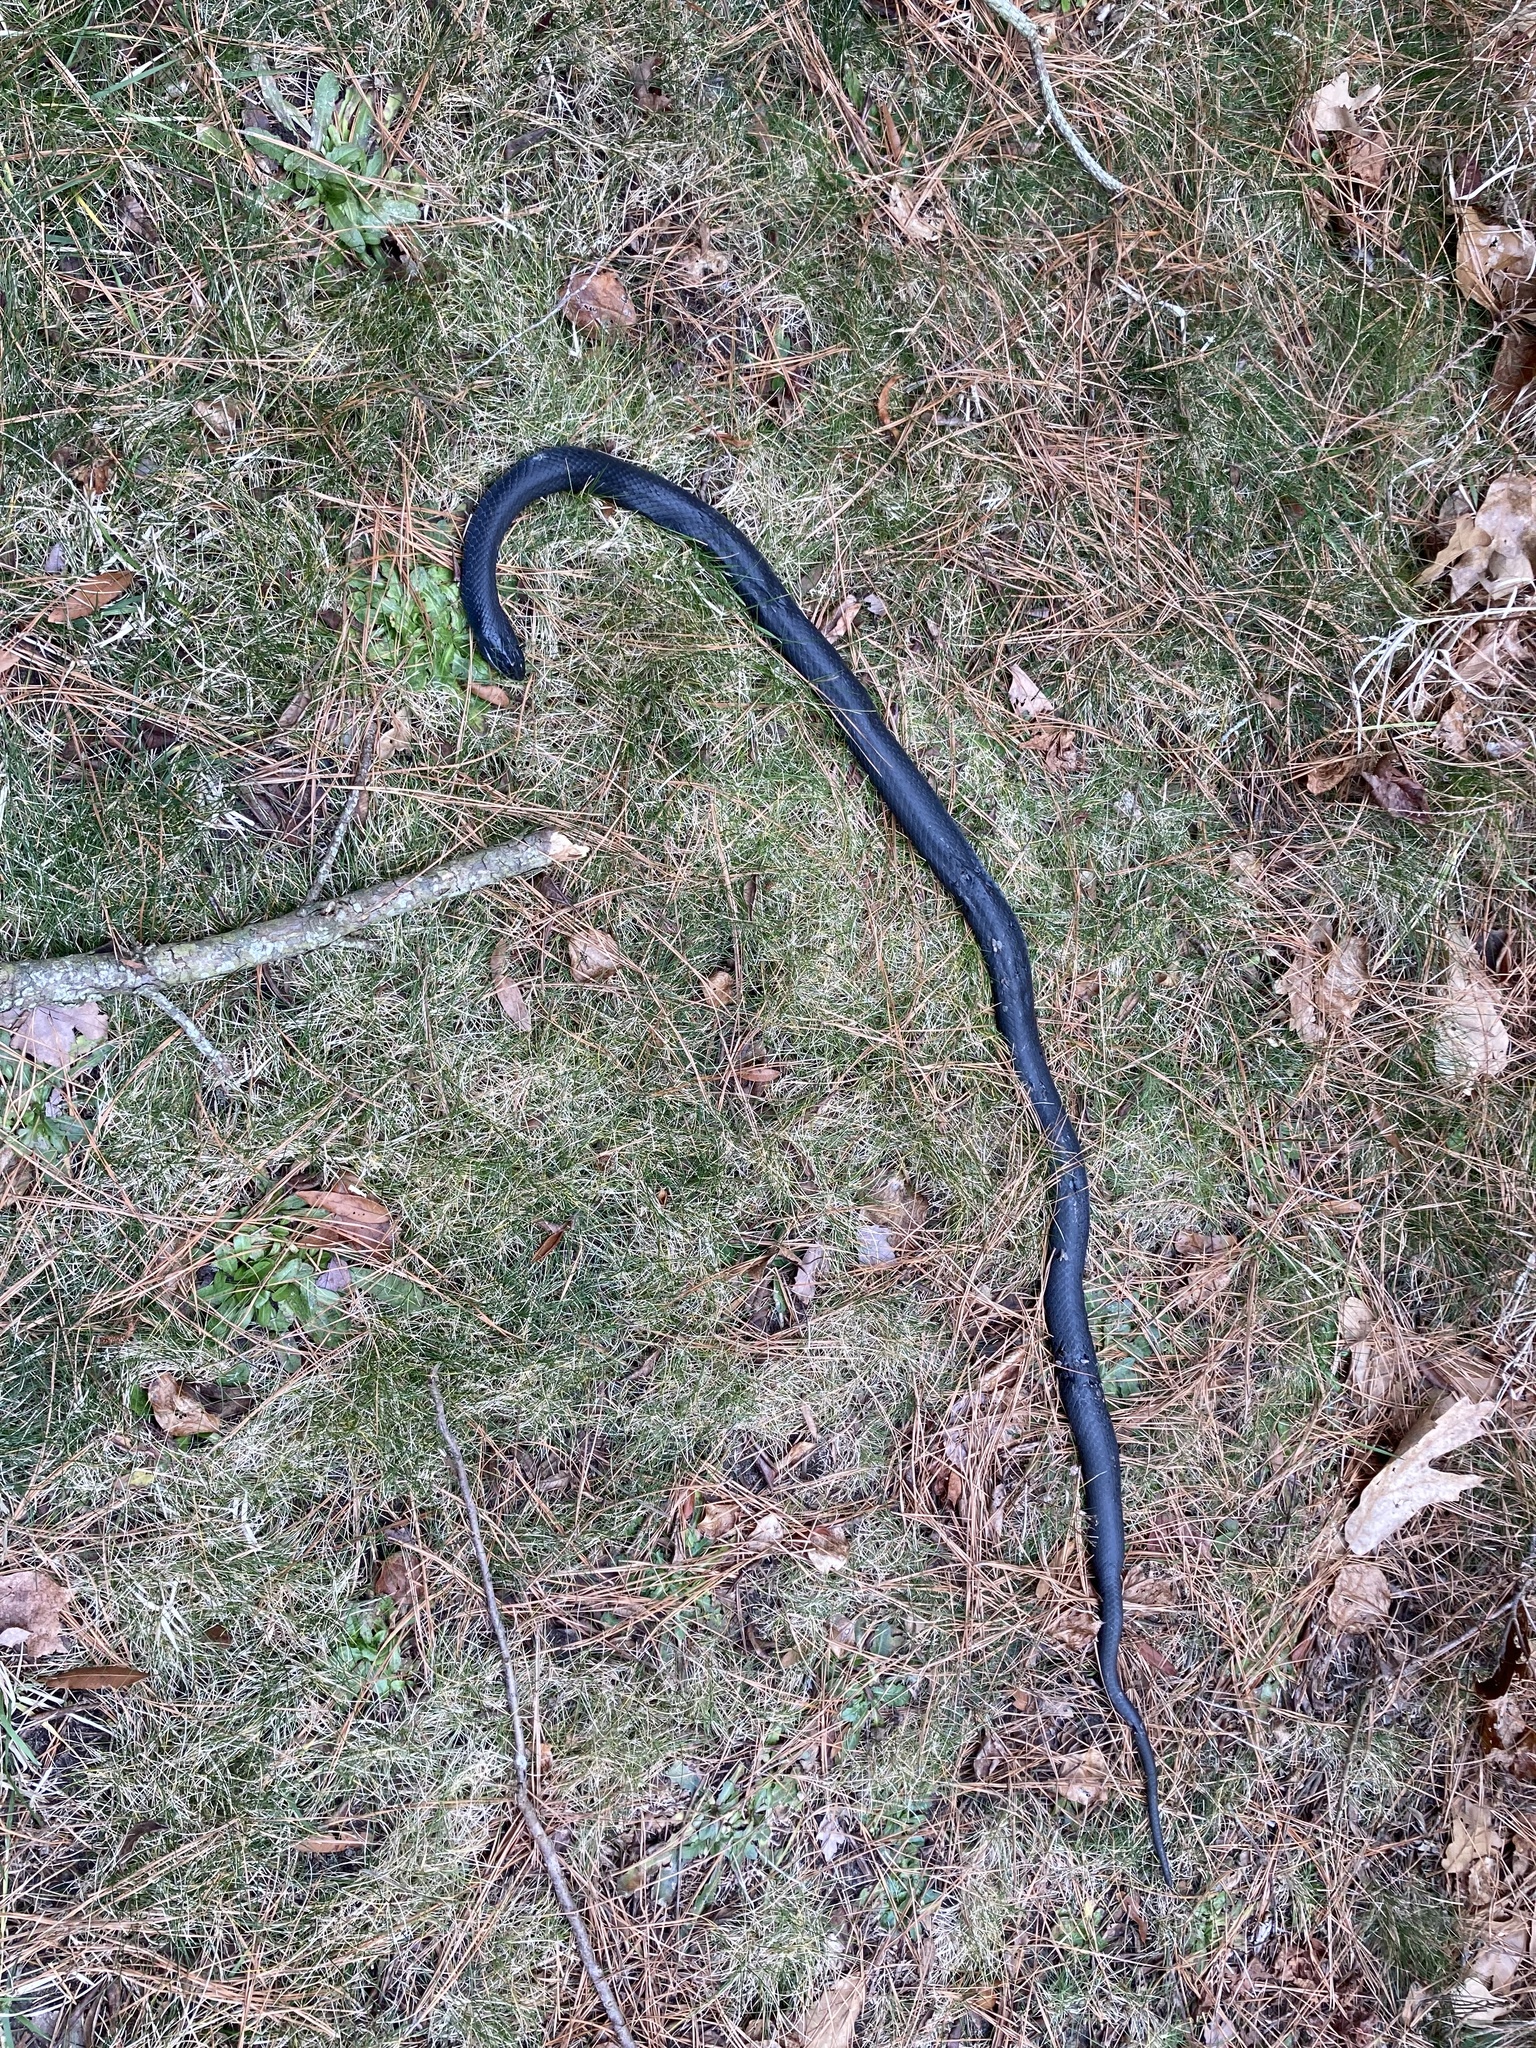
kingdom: Animalia
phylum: Chordata
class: Squamata
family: Colubridae
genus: Coluber
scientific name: Coluber constrictor
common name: Eastern racer
